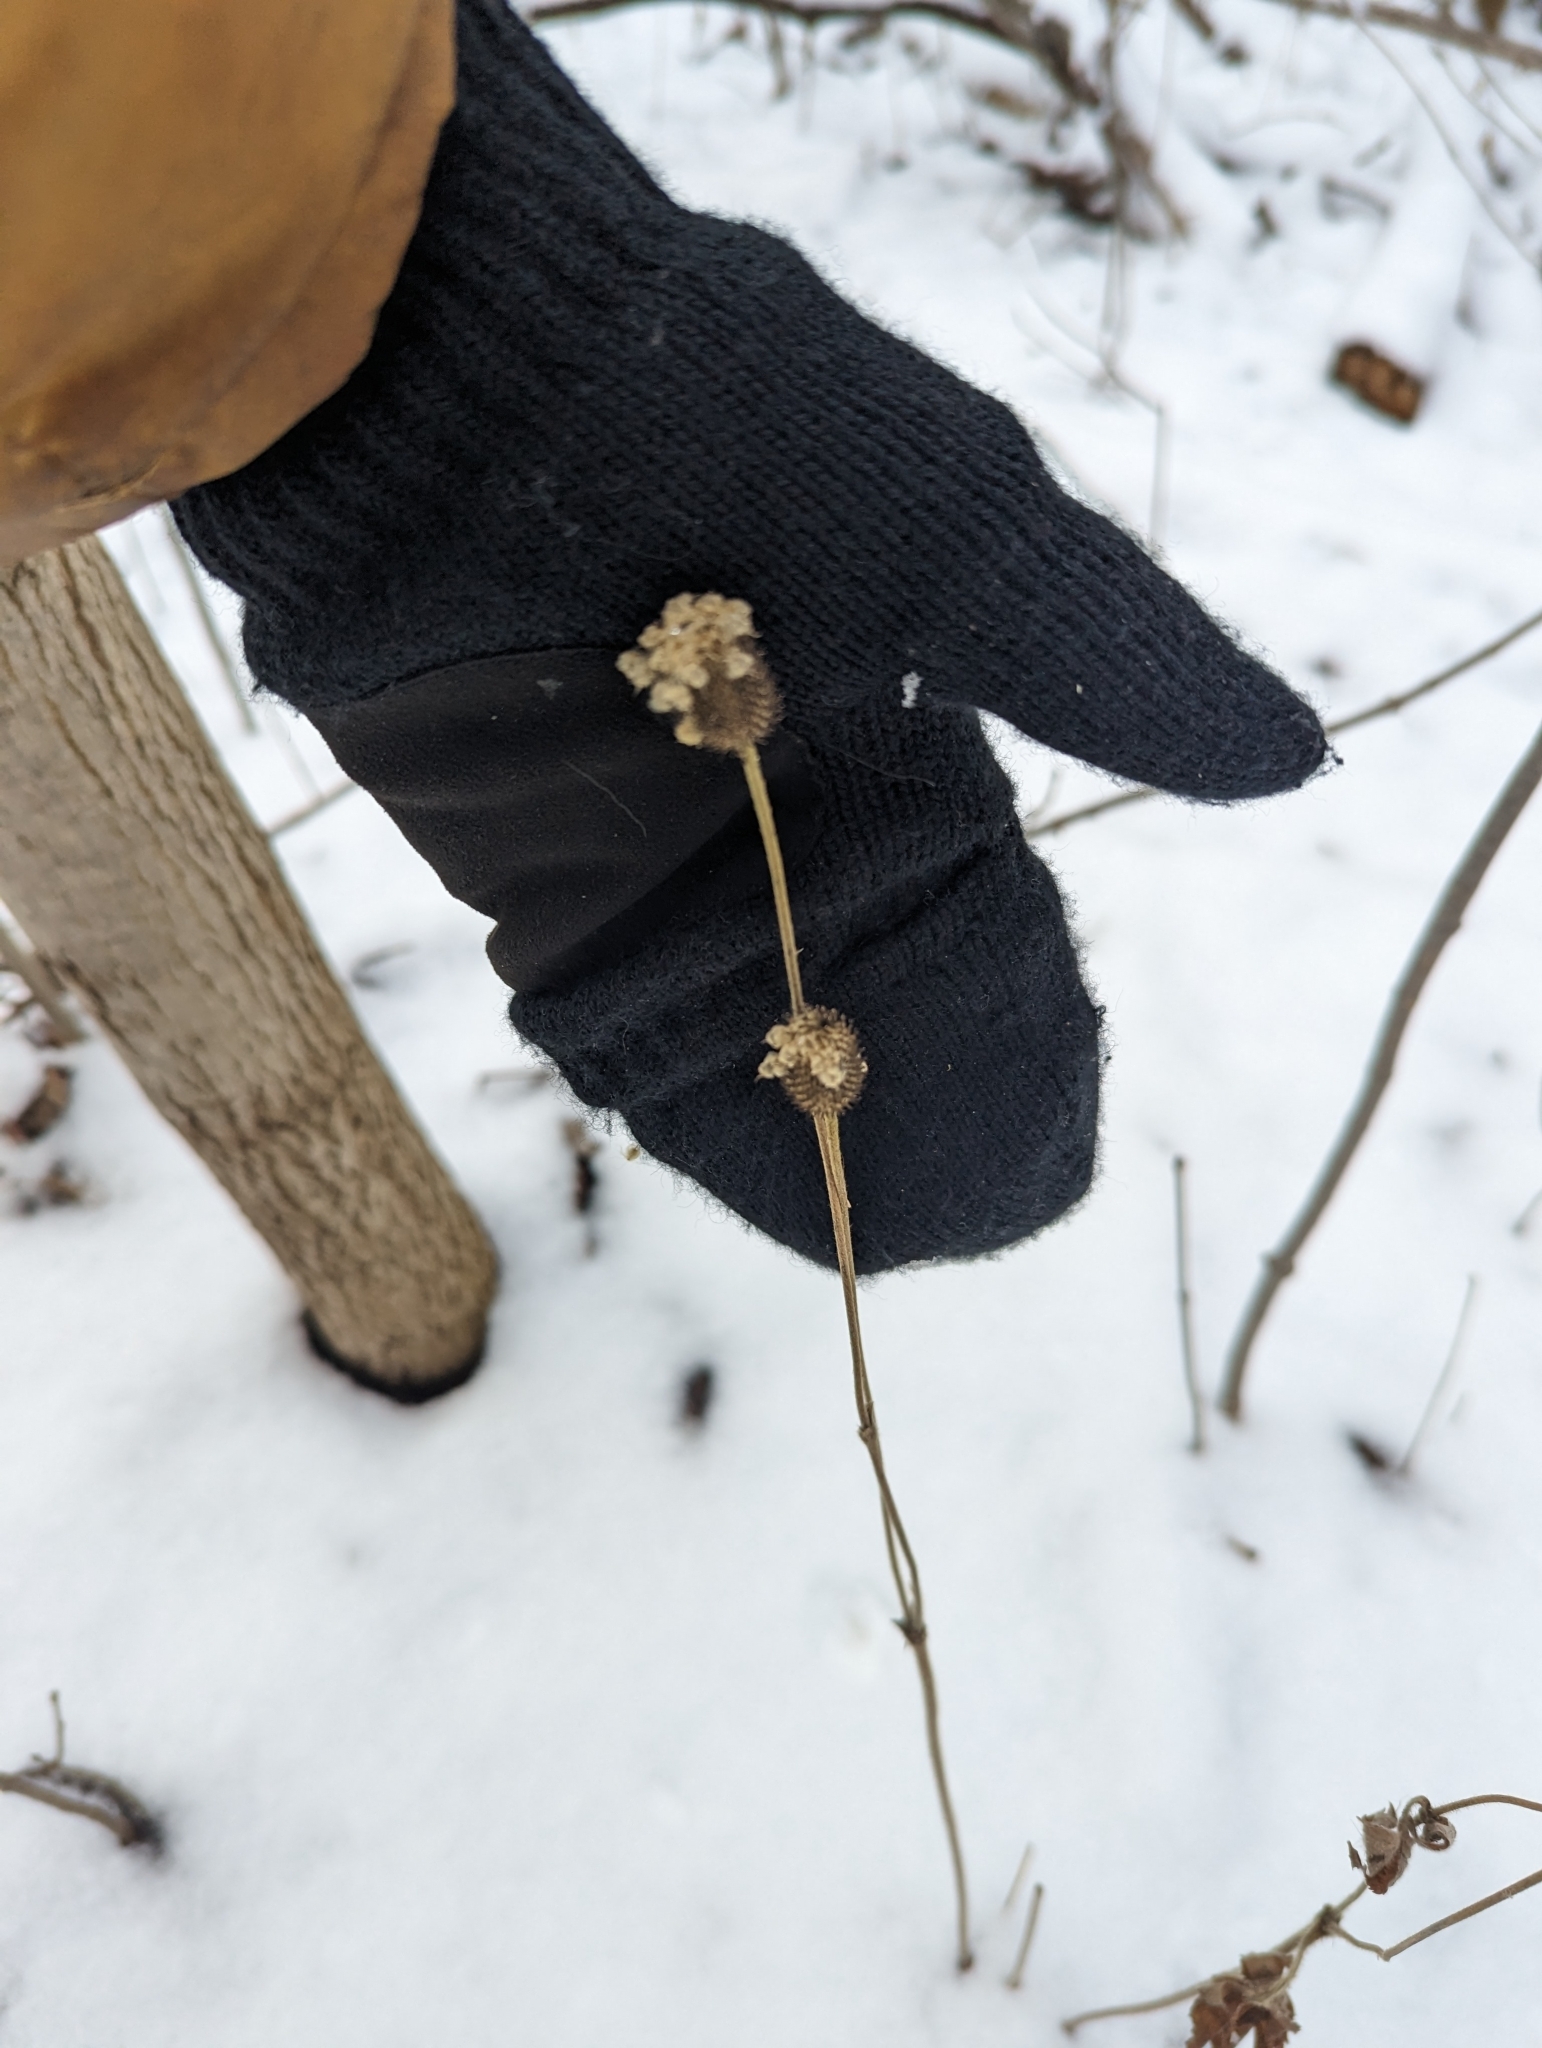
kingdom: Plantae
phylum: Tracheophyta
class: Magnoliopsida
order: Ranunculales
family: Ranunculaceae
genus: Anemone
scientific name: Anemone virginiana
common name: Tall anemone
